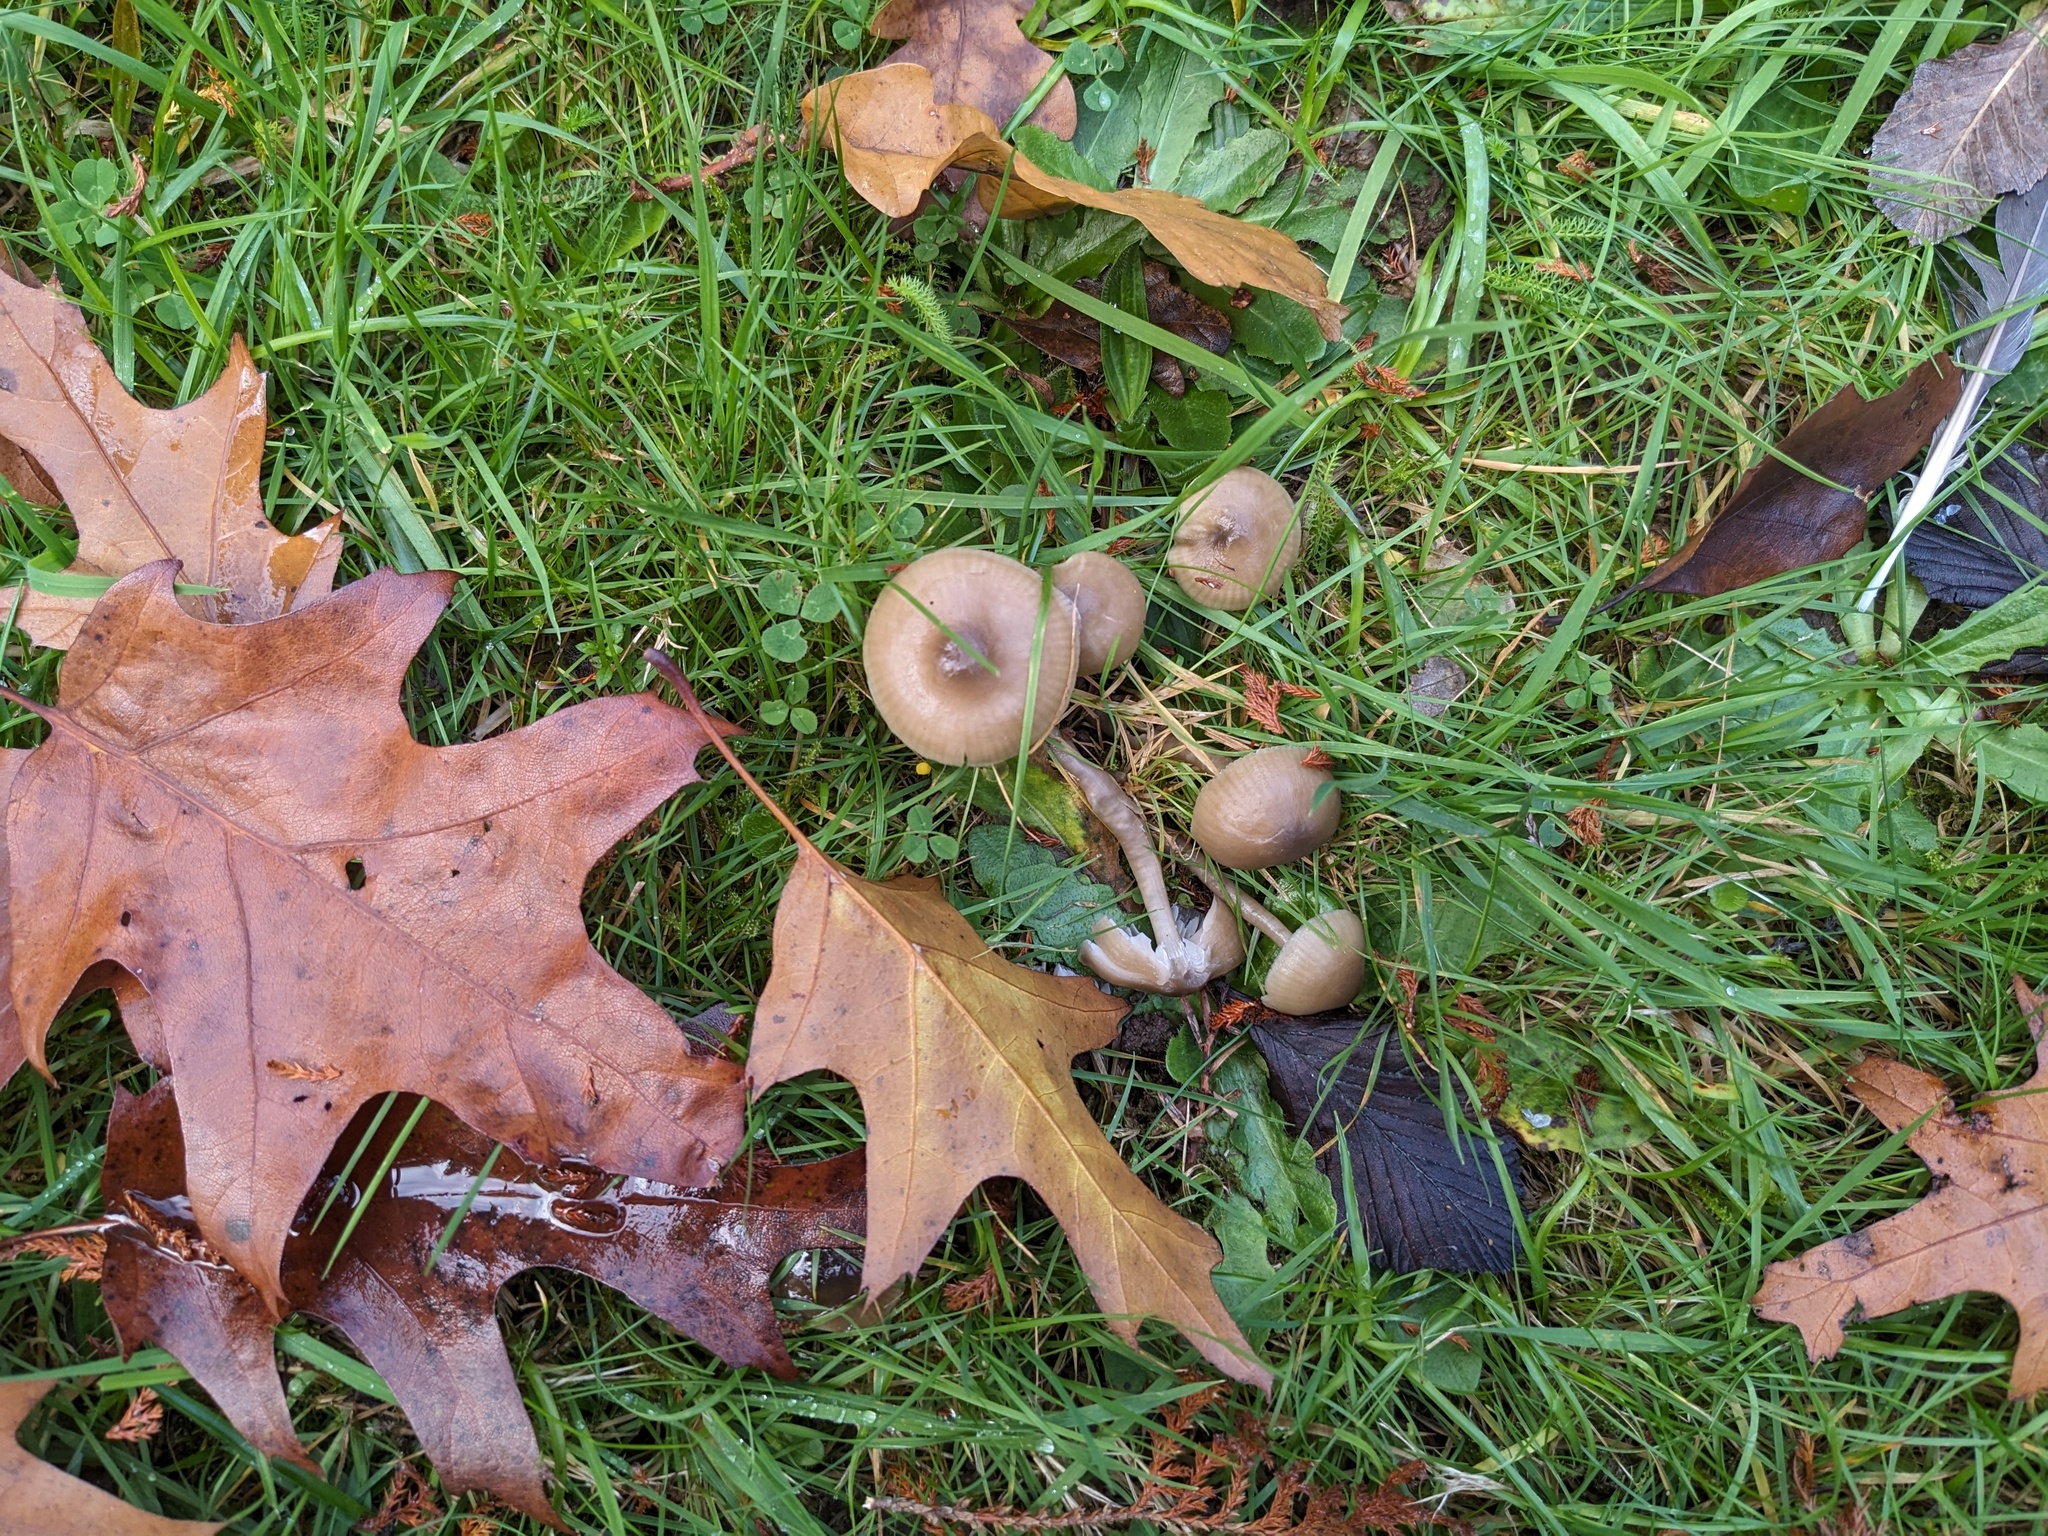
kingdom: Fungi
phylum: Basidiomycota
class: Agaricomycetes
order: Agaricales
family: Hygrophoraceae
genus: Gliophorus
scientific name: Gliophorus irrigatus
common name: Slimy waxcap
